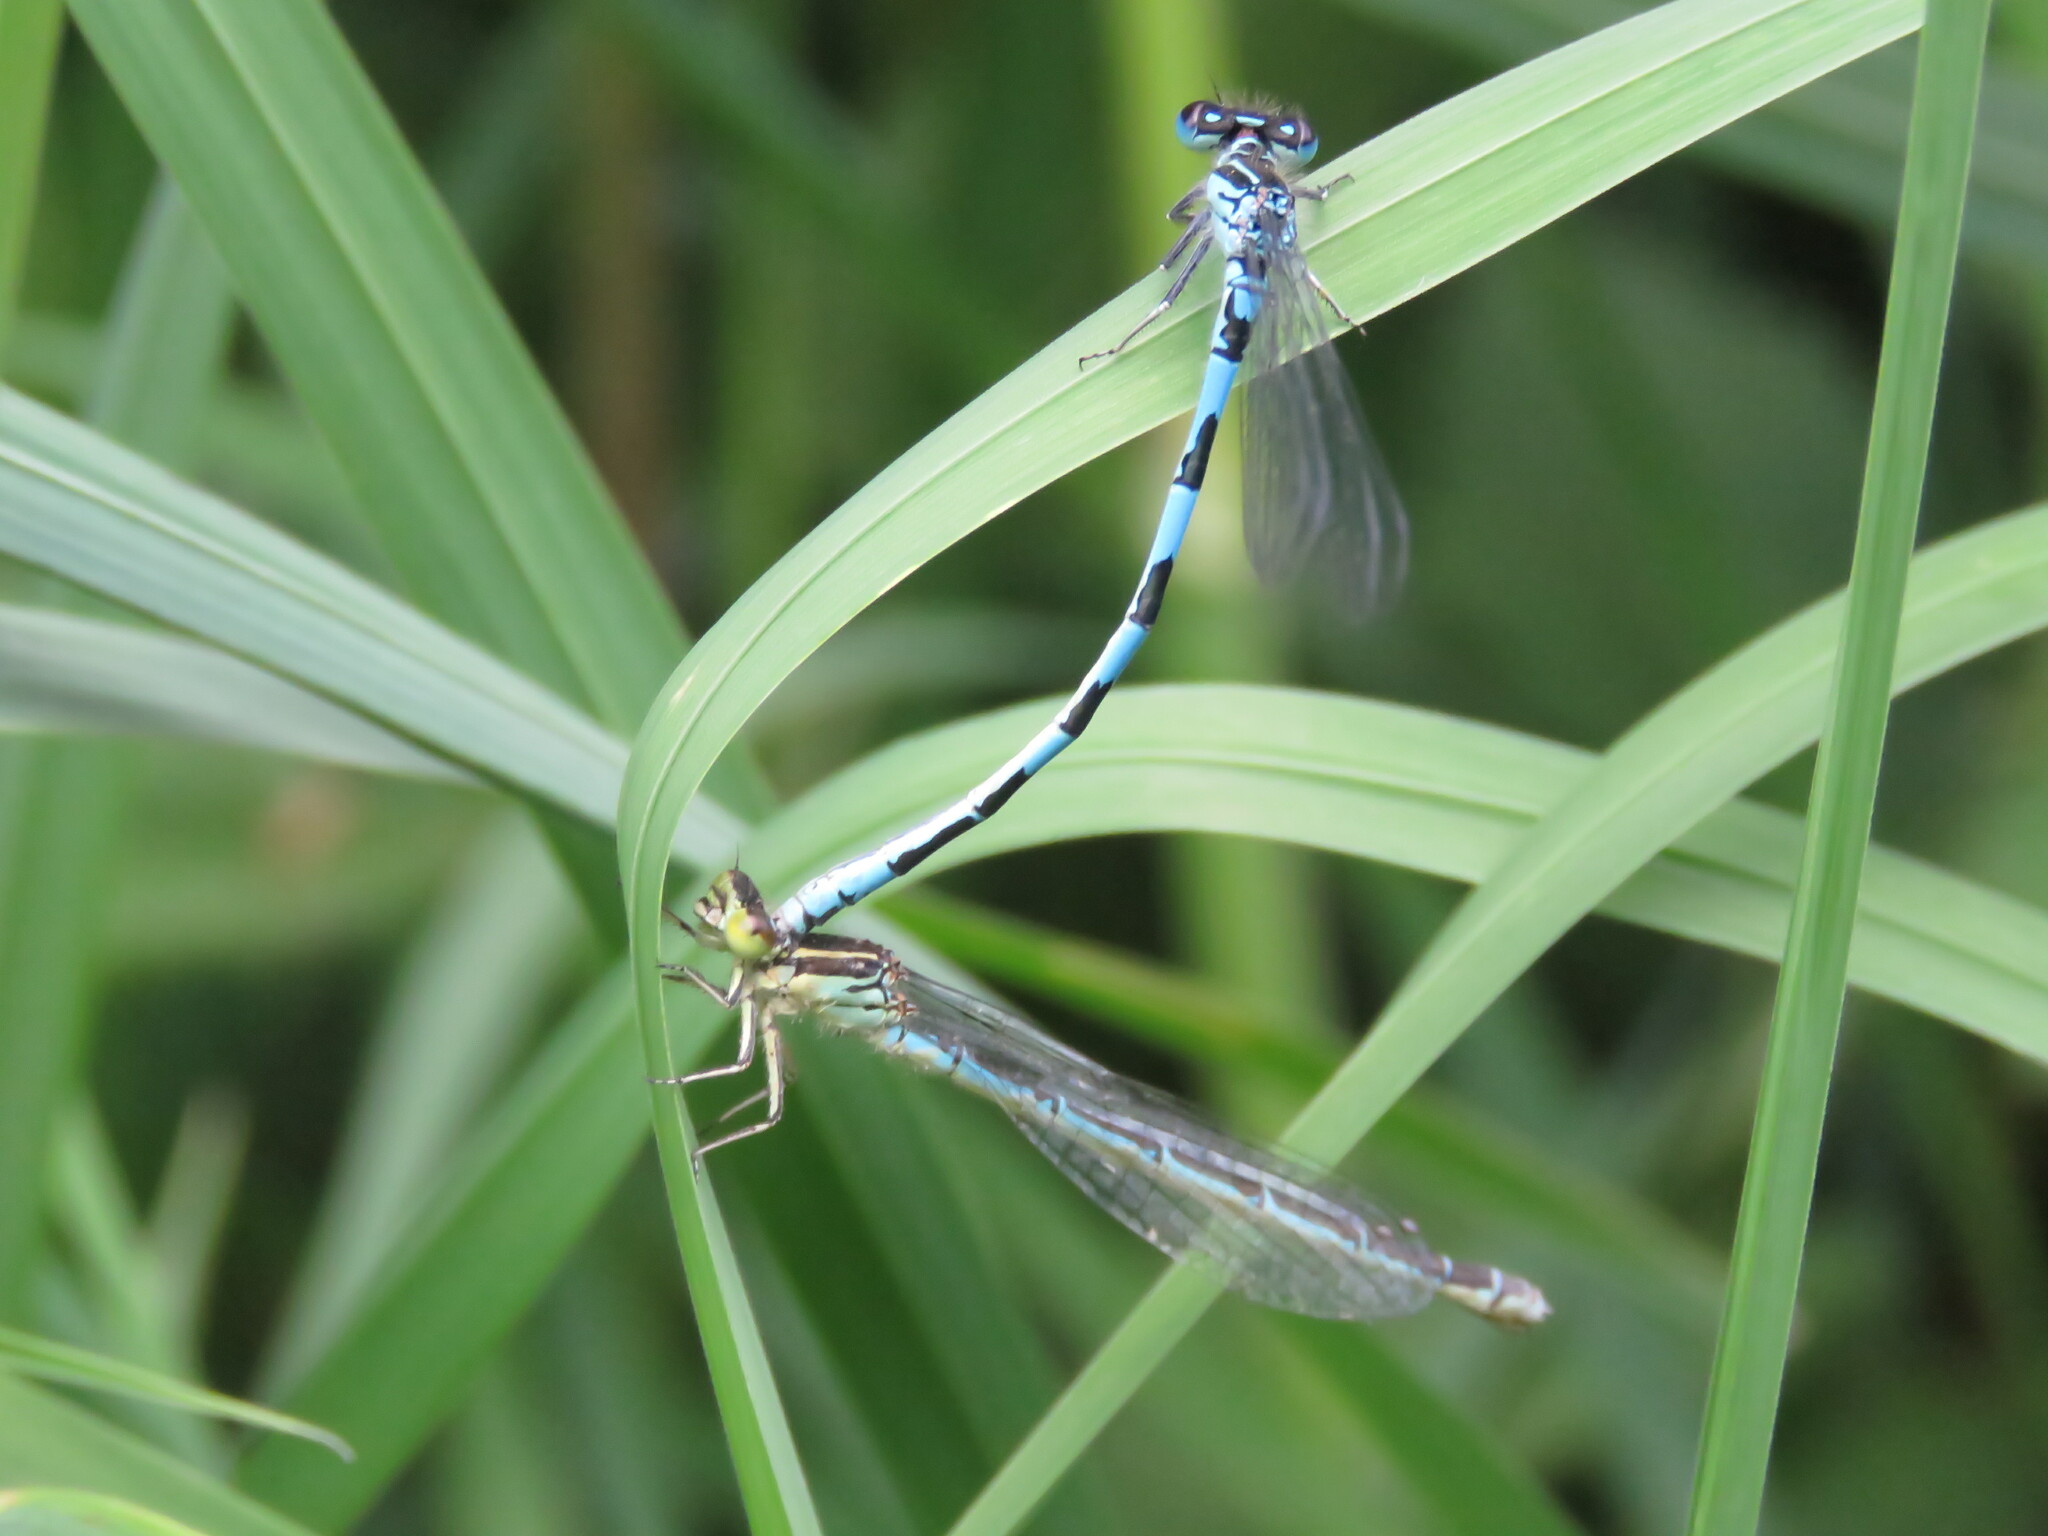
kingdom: Animalia
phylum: Arthropoda
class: Insecta
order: Odonata
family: Coenagrionidae
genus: Coenagrion
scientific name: Coenagrion mercuriale
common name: Southern damselfly
